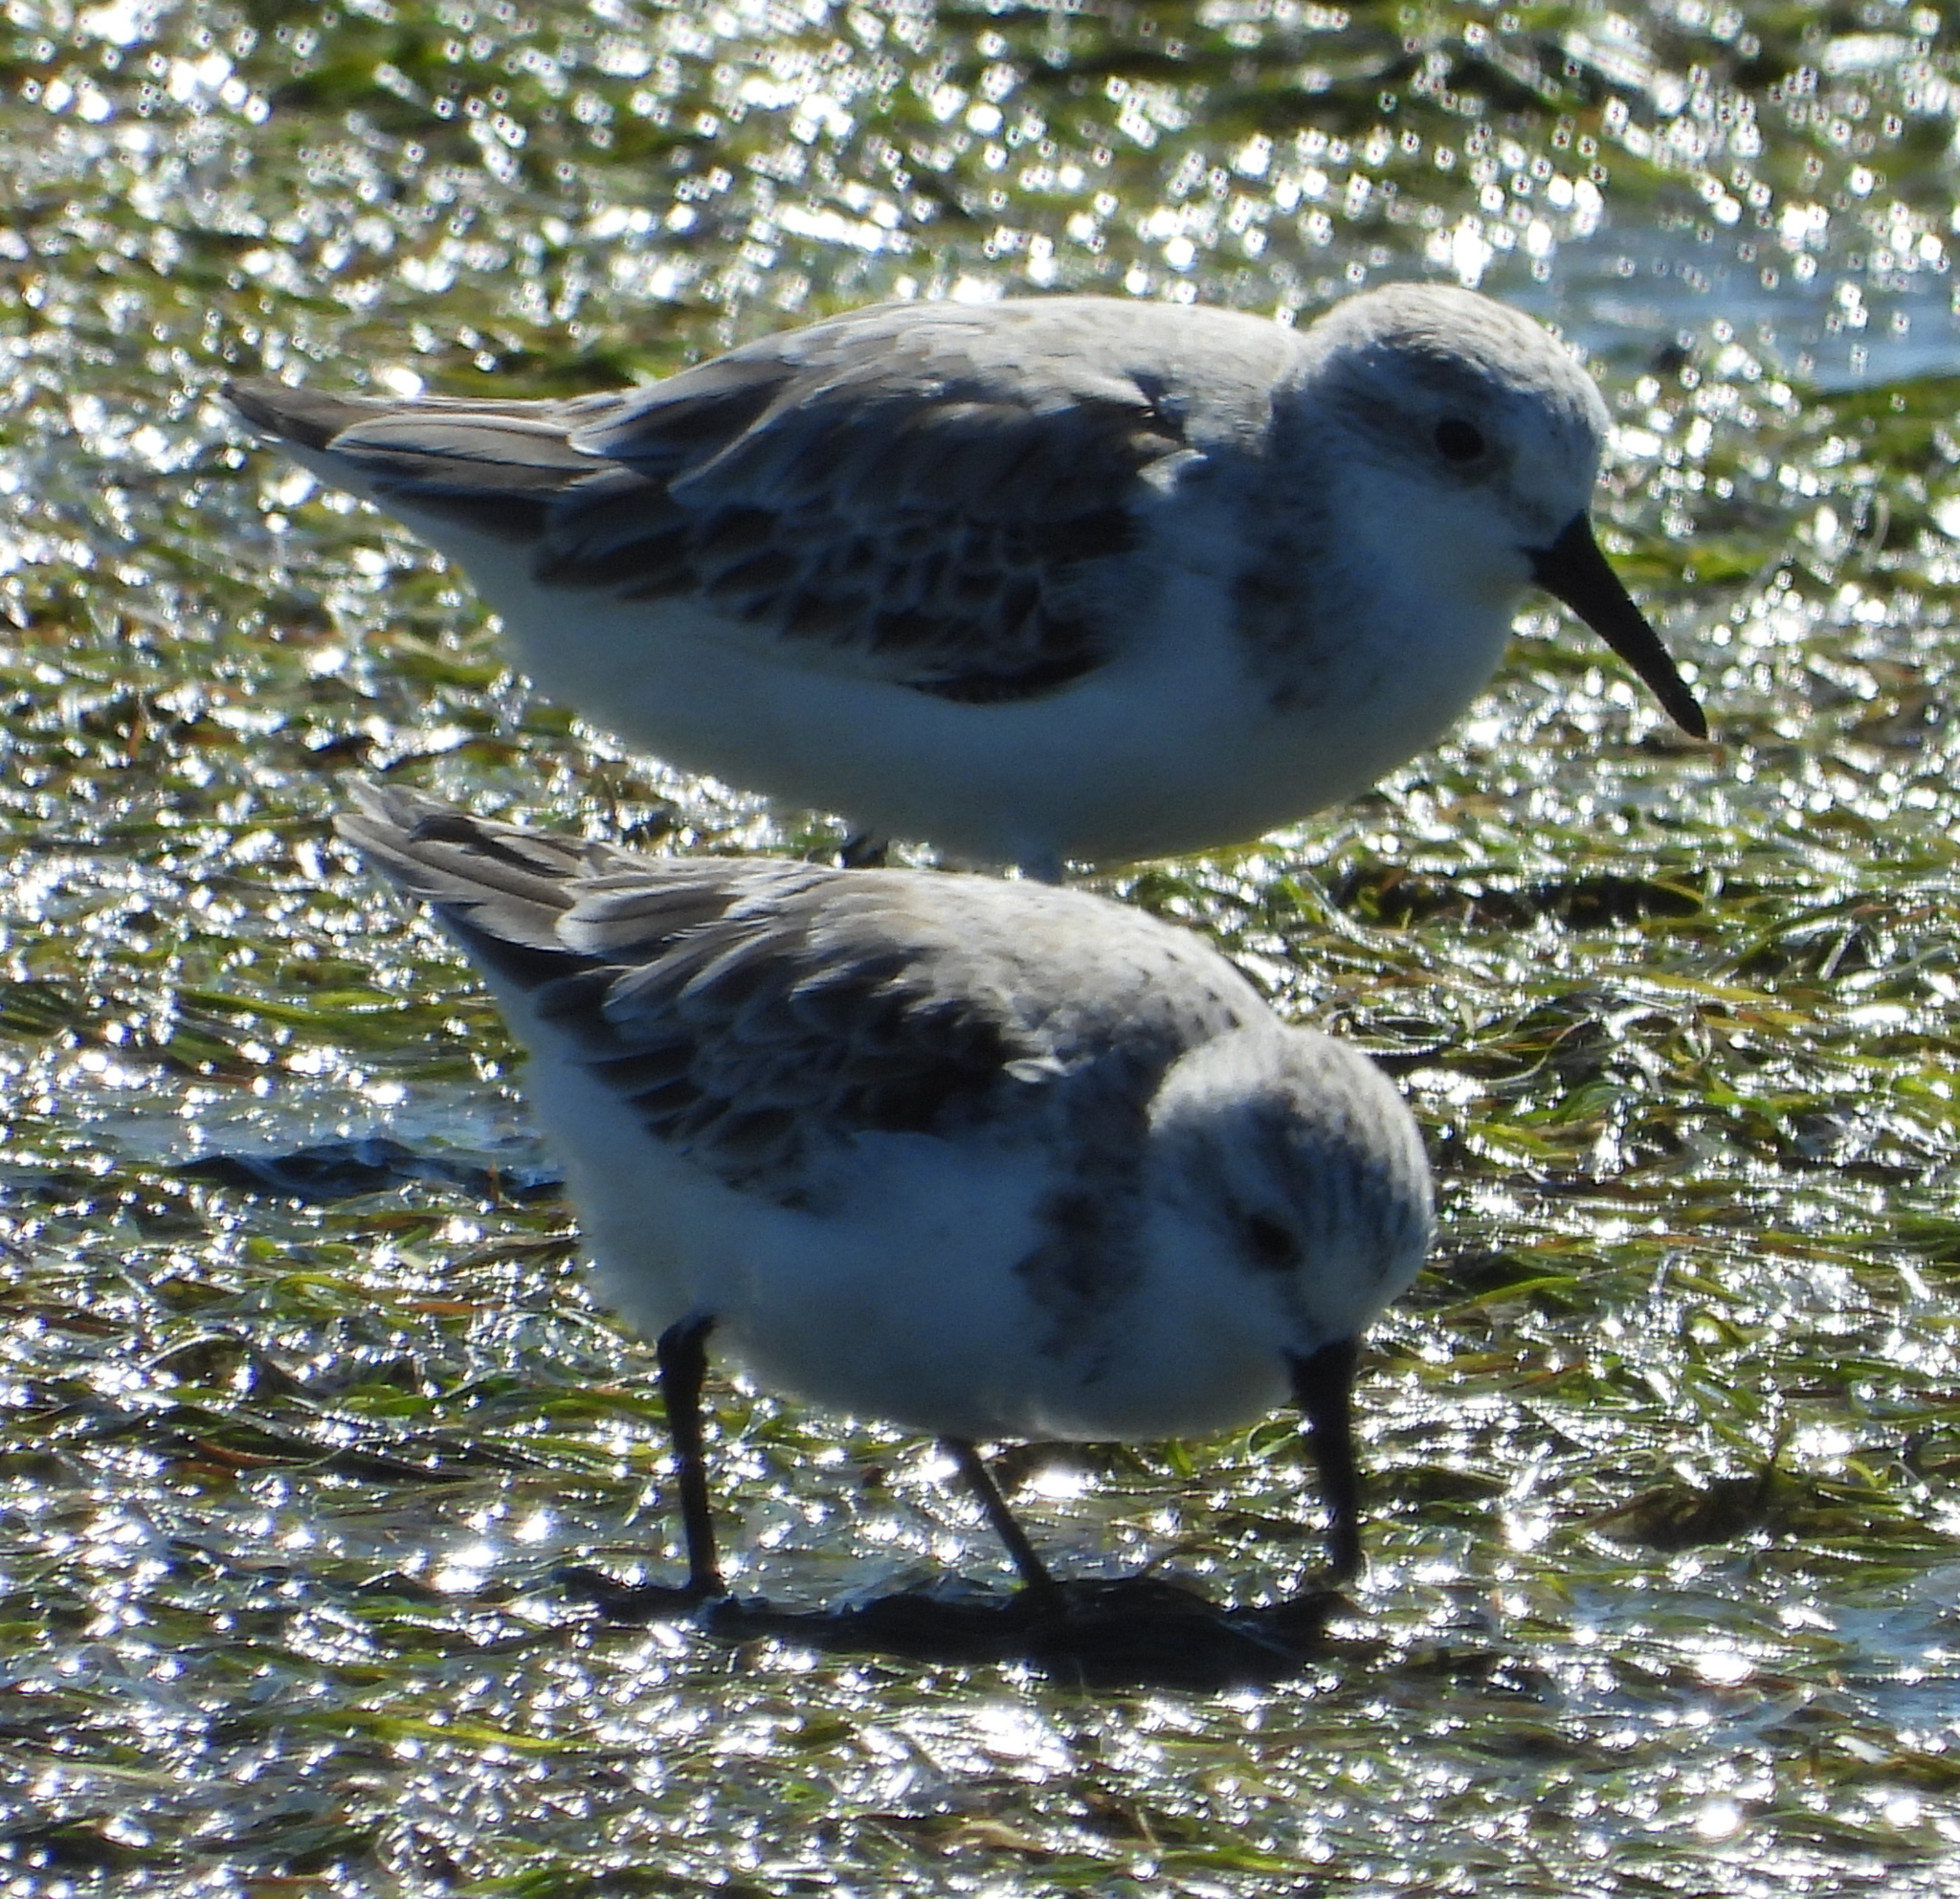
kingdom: Animalia
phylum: Chordata
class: Aves
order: Charadriiformes
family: Scolopacidae
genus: Calidris
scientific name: Calidris alba
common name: Sanderling
